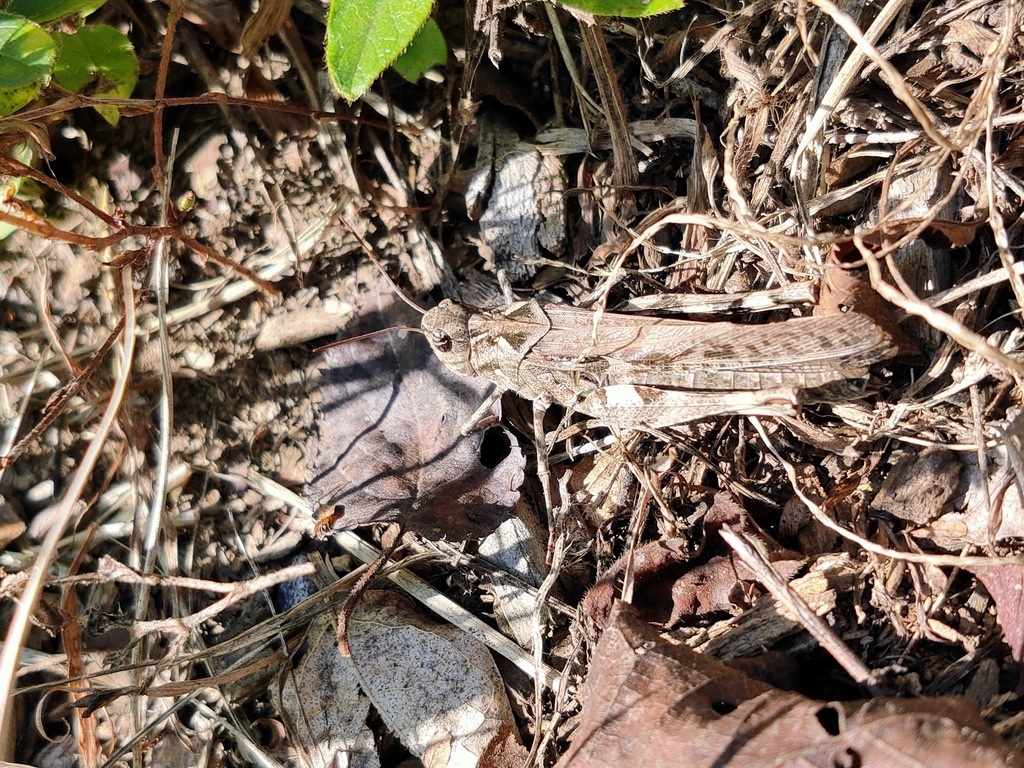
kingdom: Animalia
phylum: Arthropoda
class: Insecta
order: Orthoptera
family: Acrididae
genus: Oedaleus
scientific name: Oedaleus infernalis
